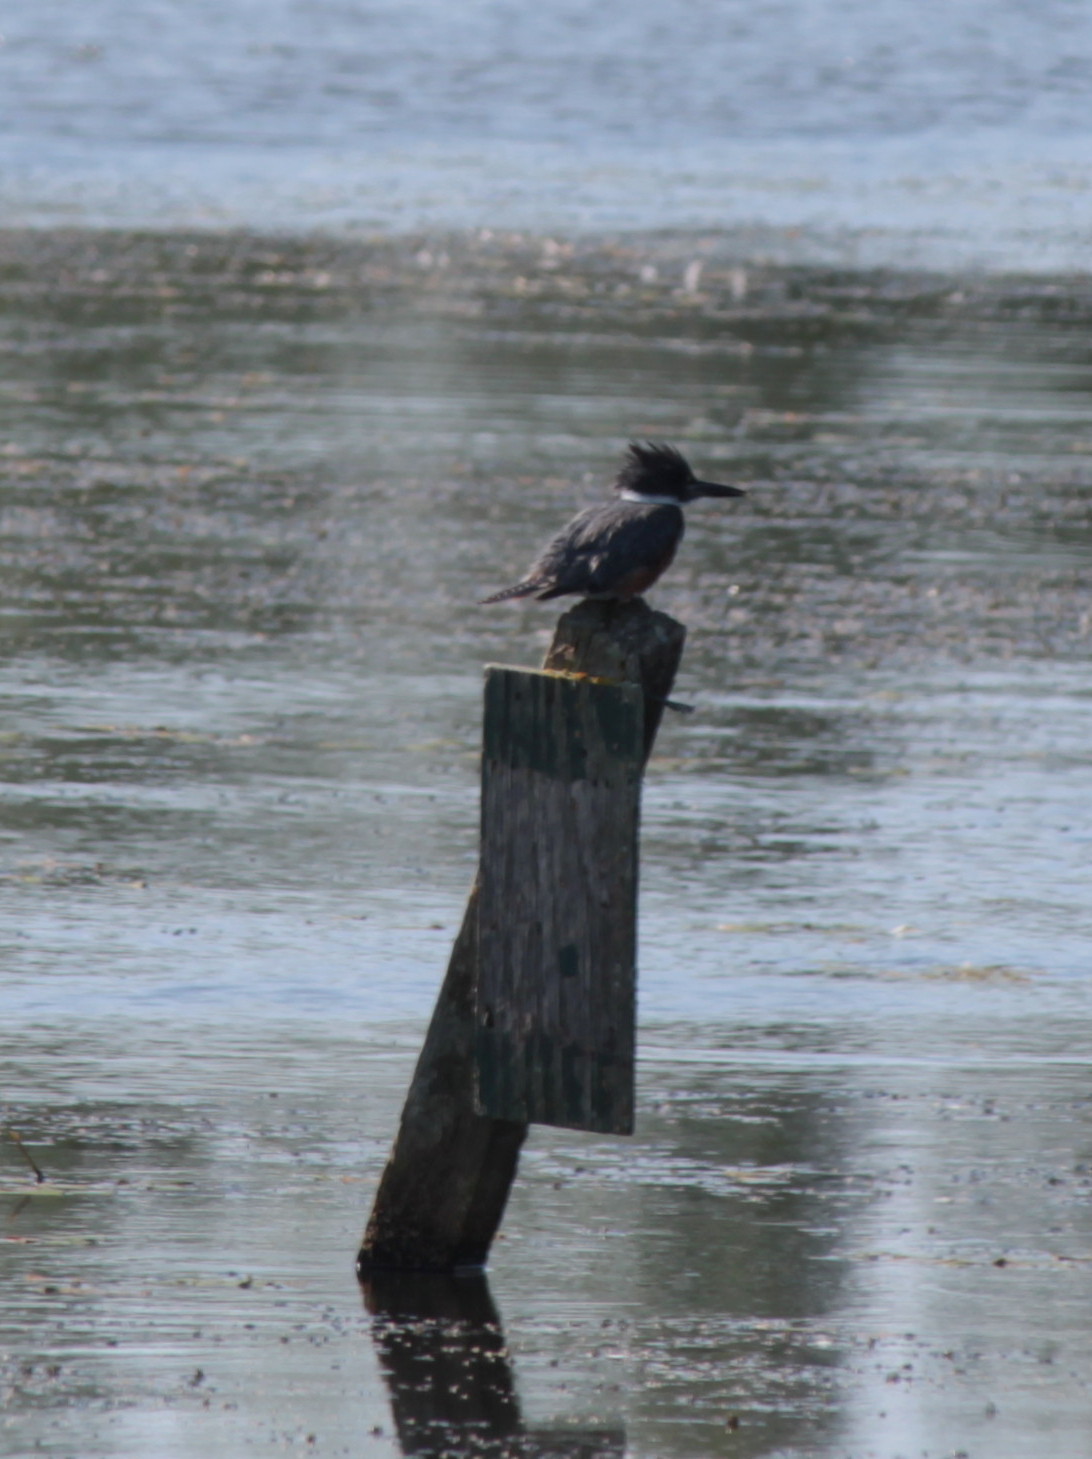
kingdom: Animalia
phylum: Chordata
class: Aves
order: Coraciiformes
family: Alcedinidae
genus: Megaceryle
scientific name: Megaceryle alcyon
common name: Belted kingfisher
